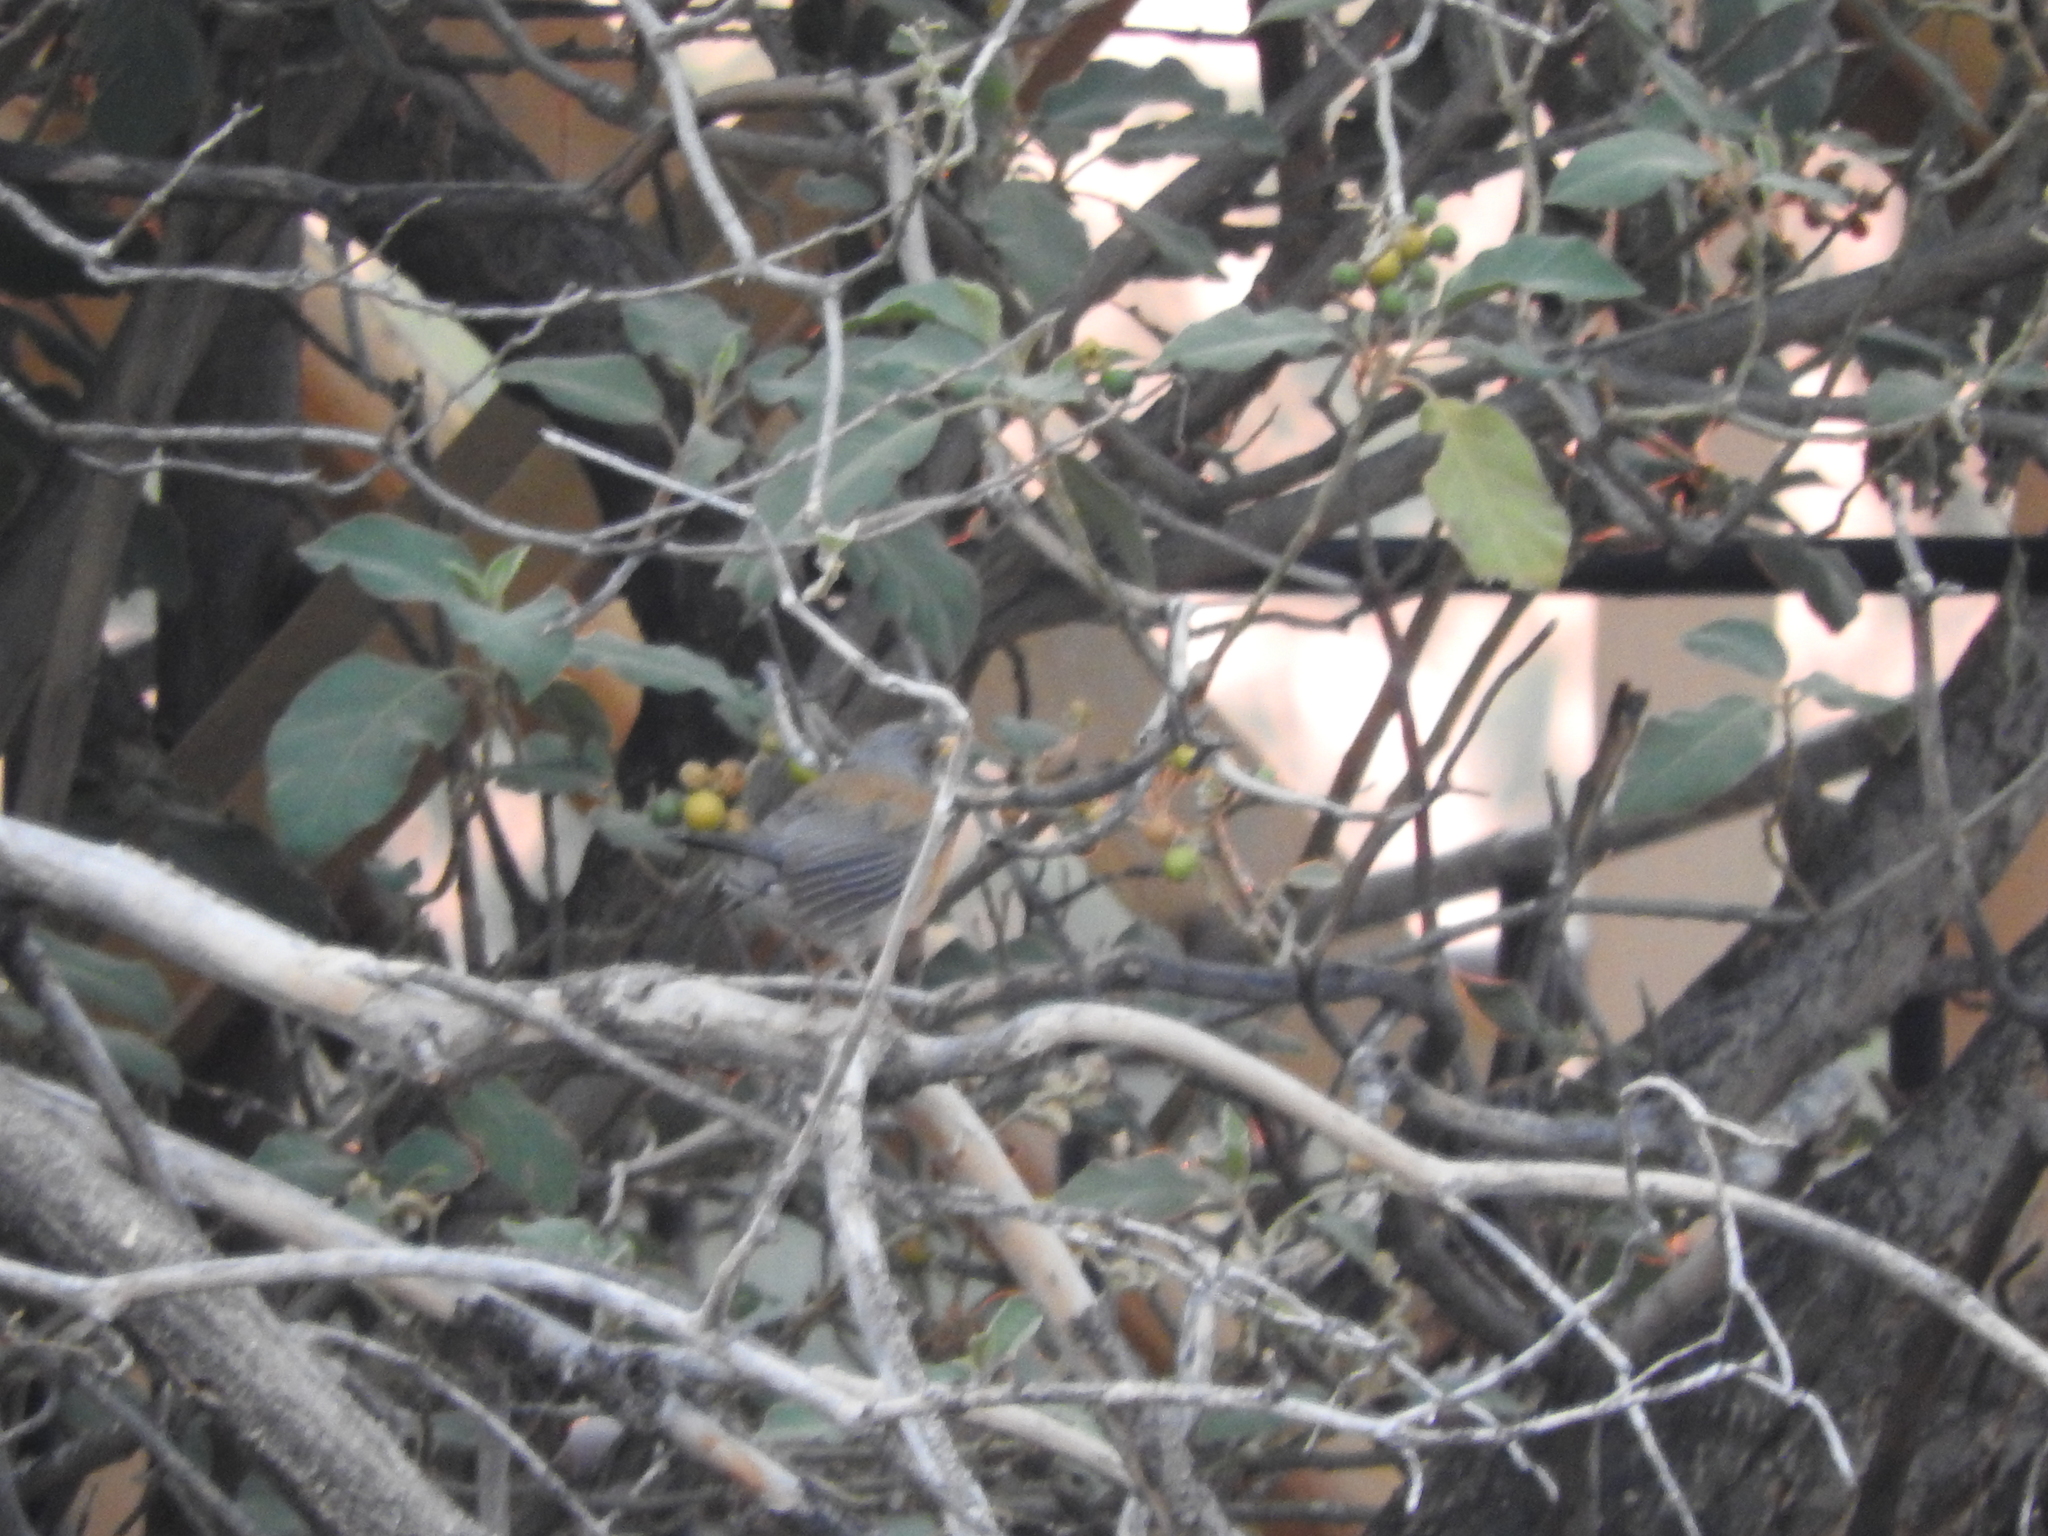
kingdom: Animalia
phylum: Chordata
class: Aves
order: Passeriformes
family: Turdidae
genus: Turdus
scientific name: Turdus rufopalliatus
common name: Rufous-backed robin
